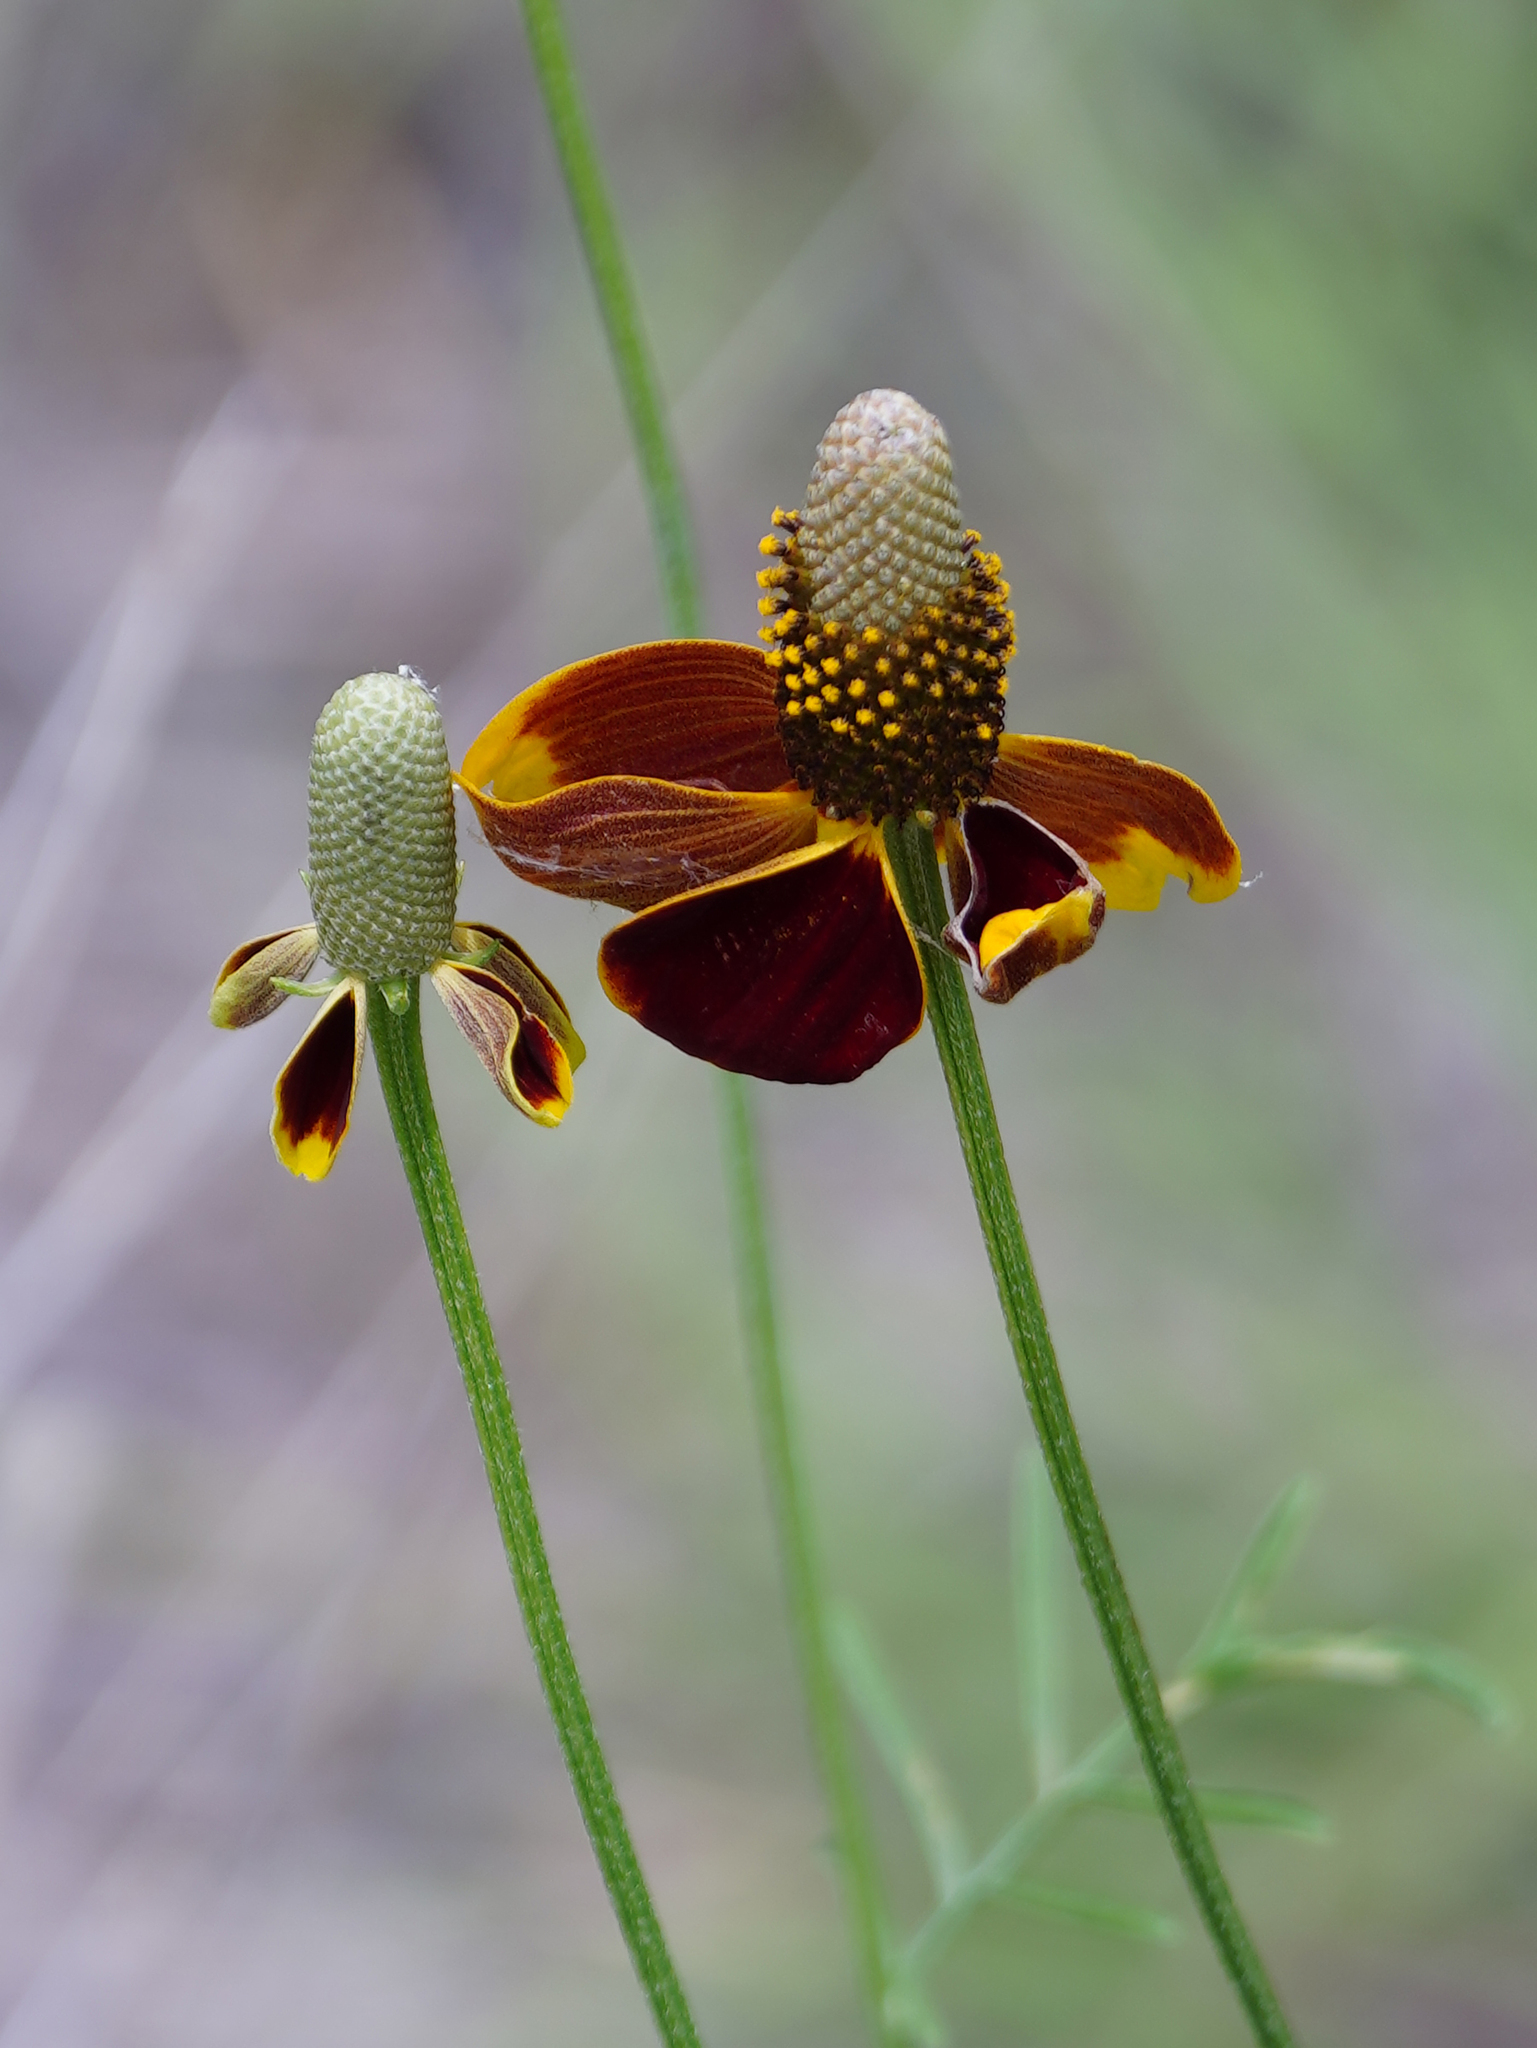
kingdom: Plantae
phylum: Tracheophyta
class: Magnoliopsida
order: Asterales
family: Asteraceae
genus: Ratibida
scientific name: Ratibida columnifera
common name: Prairie coneflower
